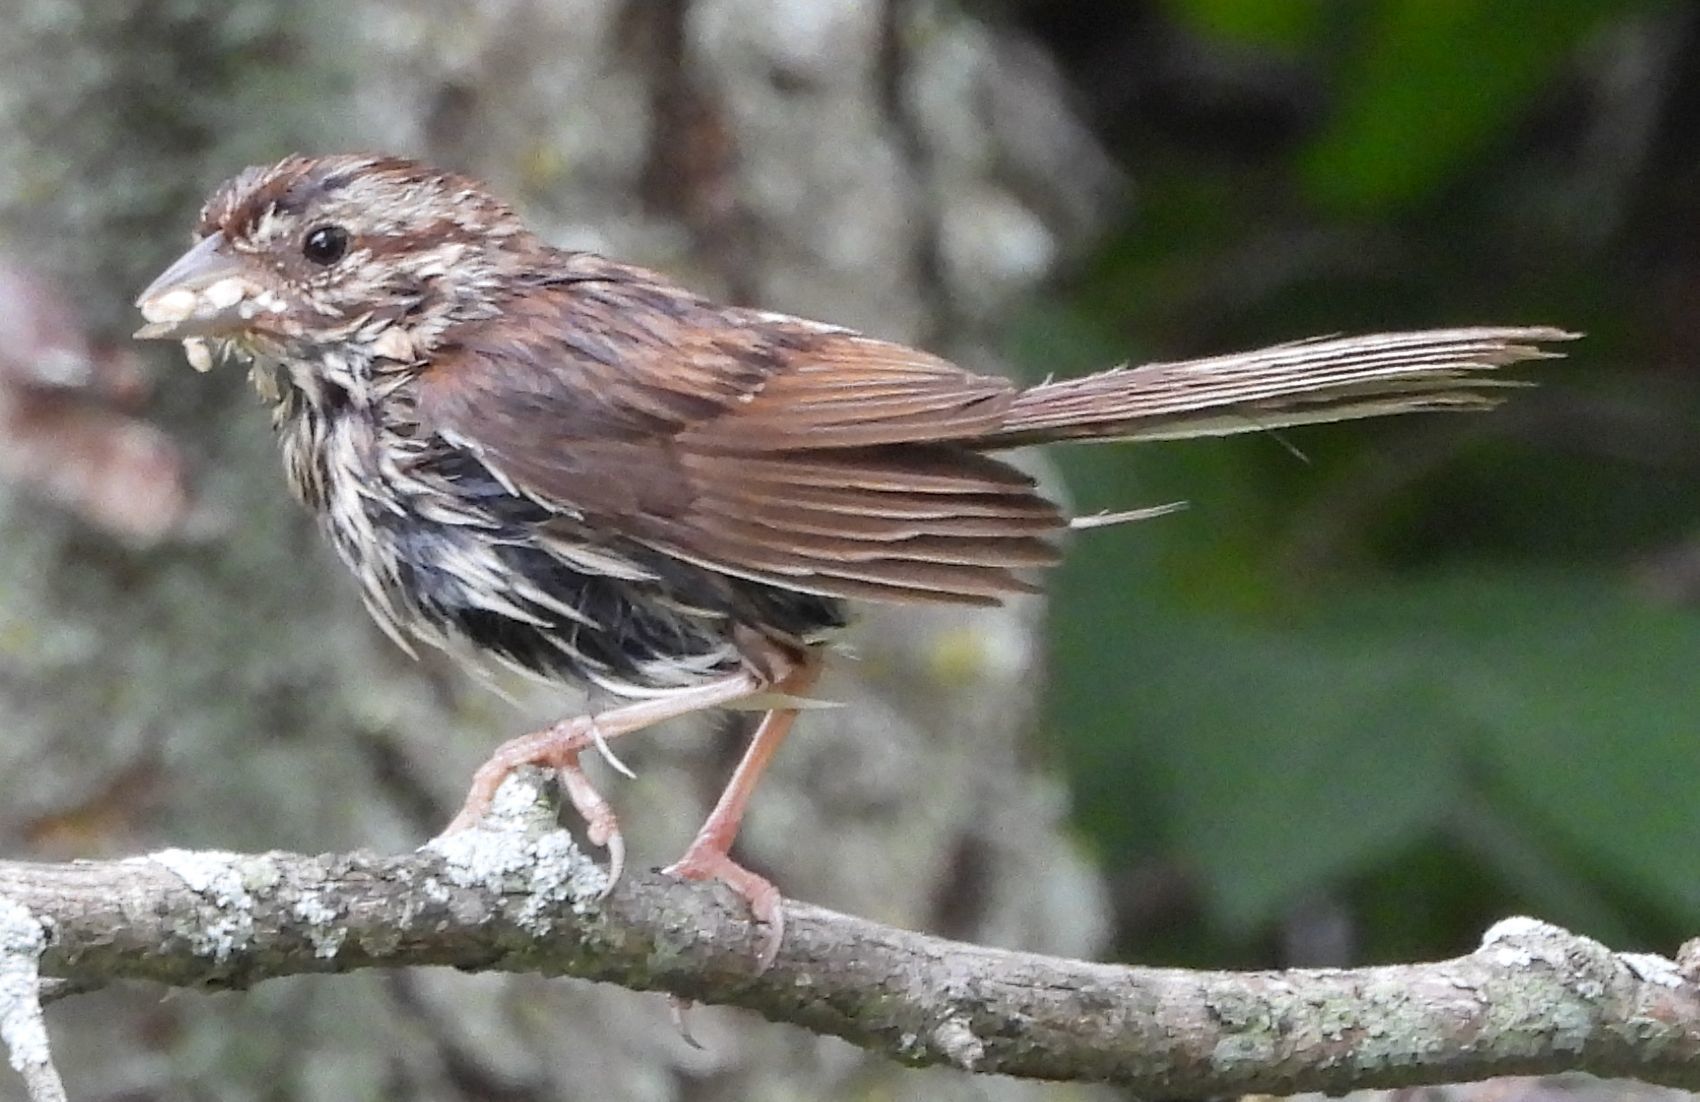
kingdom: Animalia
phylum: Chordata
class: Aves
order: Passeriformes
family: Passerellidae
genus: Melospiza
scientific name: Melospiza melodia
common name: Song sparrow
